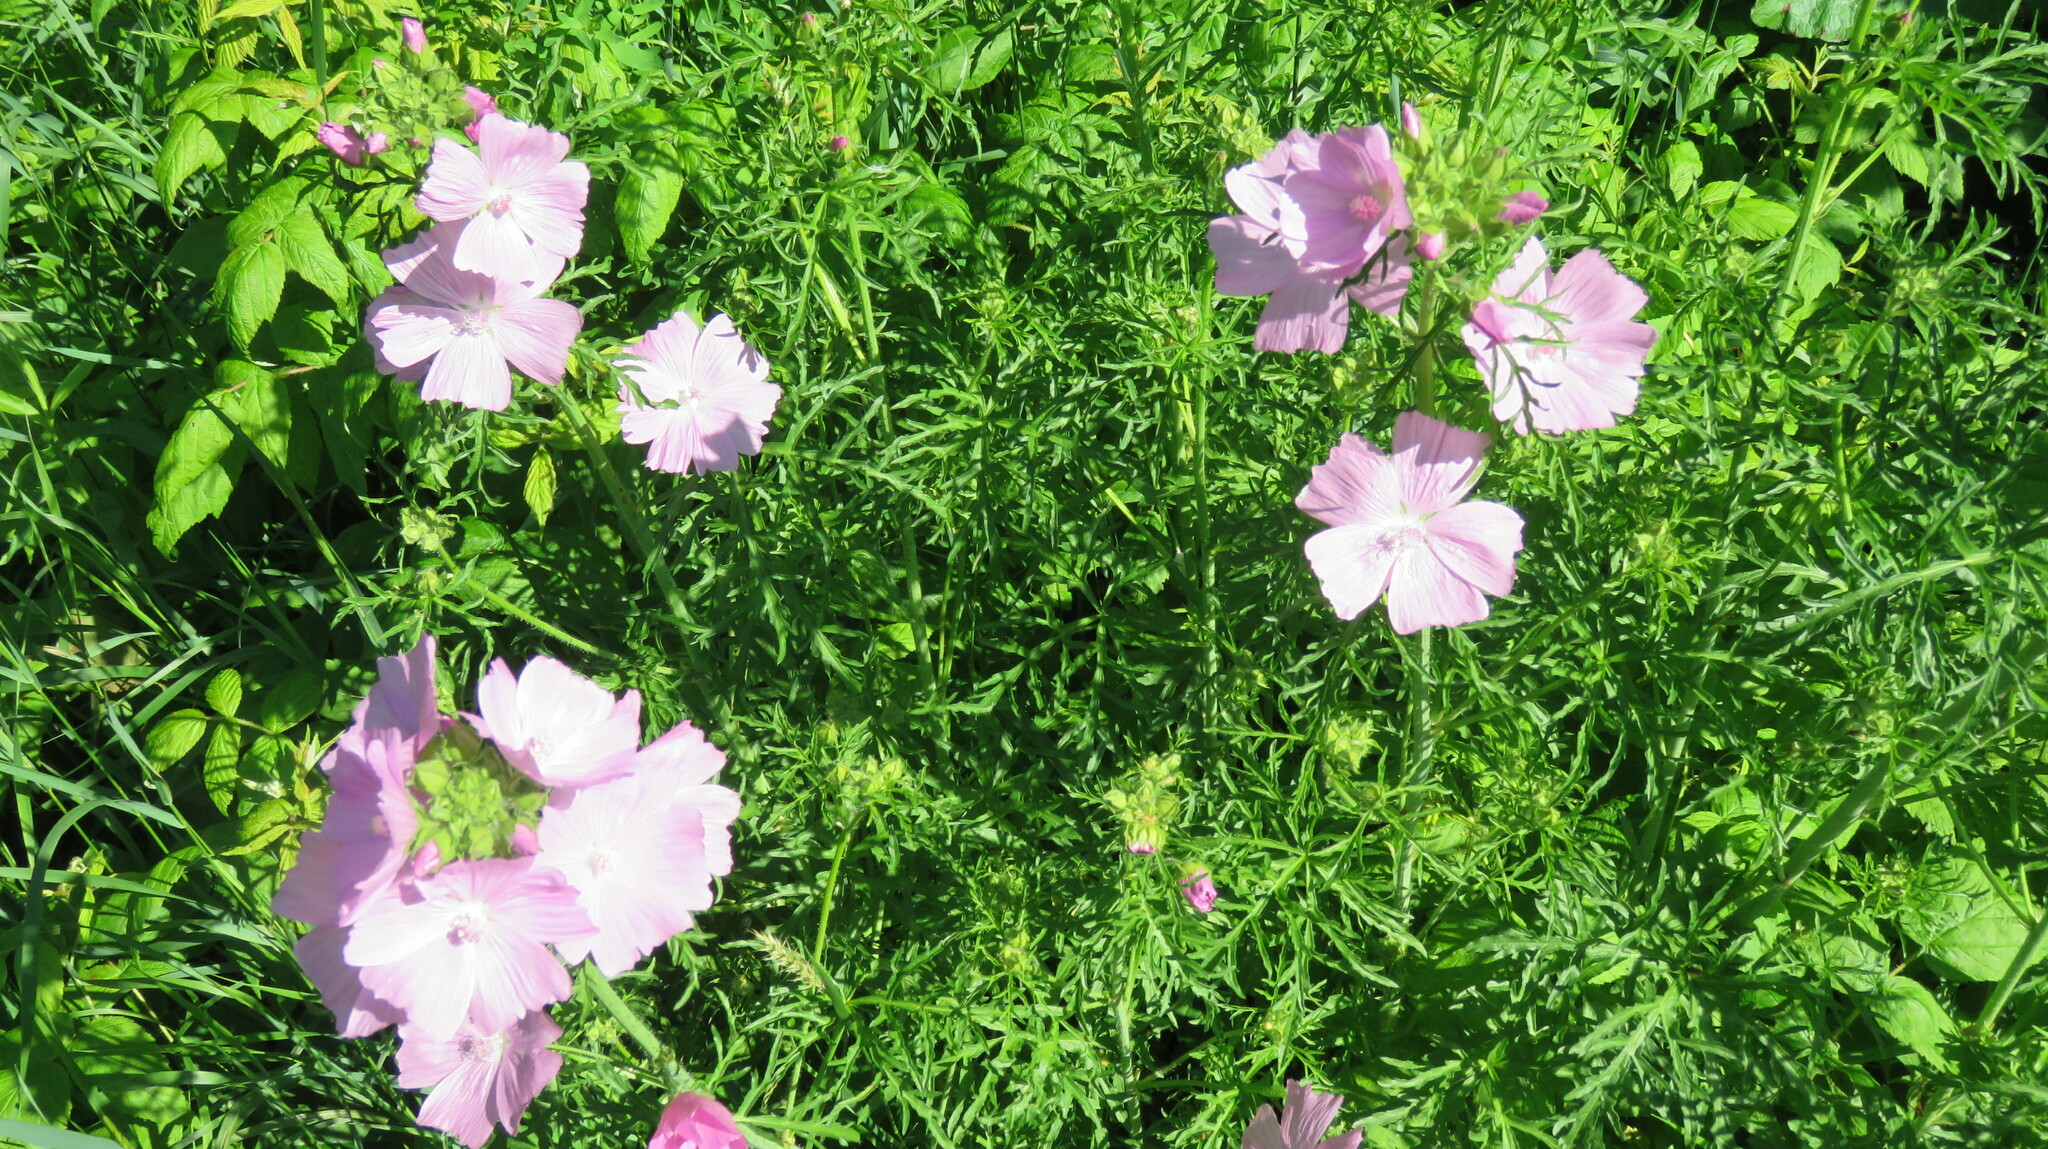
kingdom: Plantae
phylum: Tracheophyta
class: Magnoliopsida
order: Malvales
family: Malvaceae
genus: Malva
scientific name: Malva moschata
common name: Musk mallow
